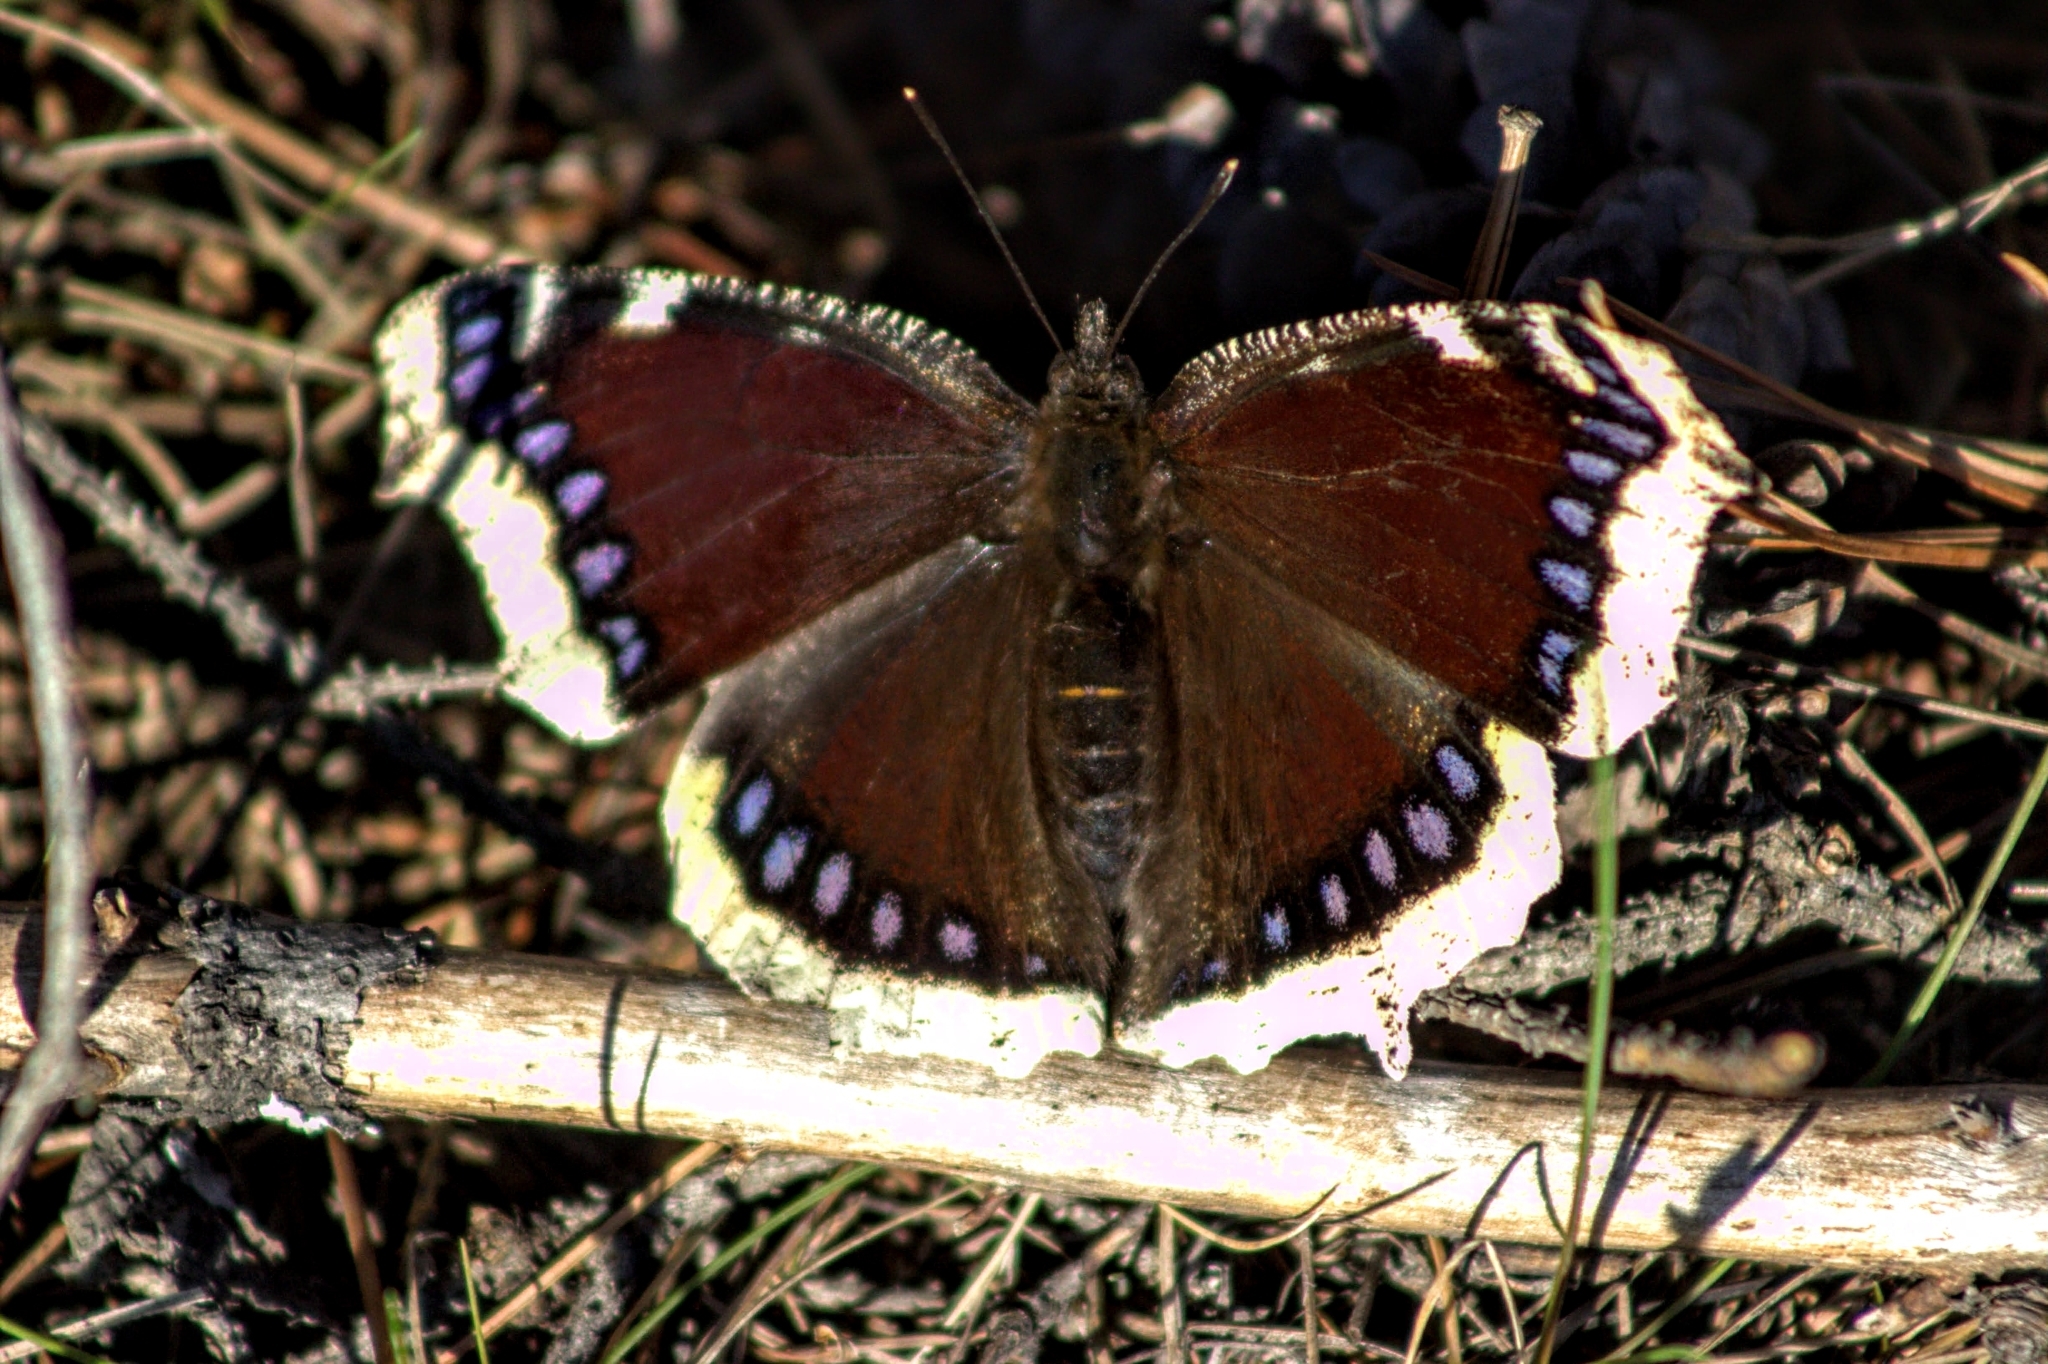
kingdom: Animalia
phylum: Arthropoda
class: Insecta
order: Lepidoptera
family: Nymphalidae
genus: Nymphalis
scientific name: Nymphalis antiopa
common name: Camberwell beauty
